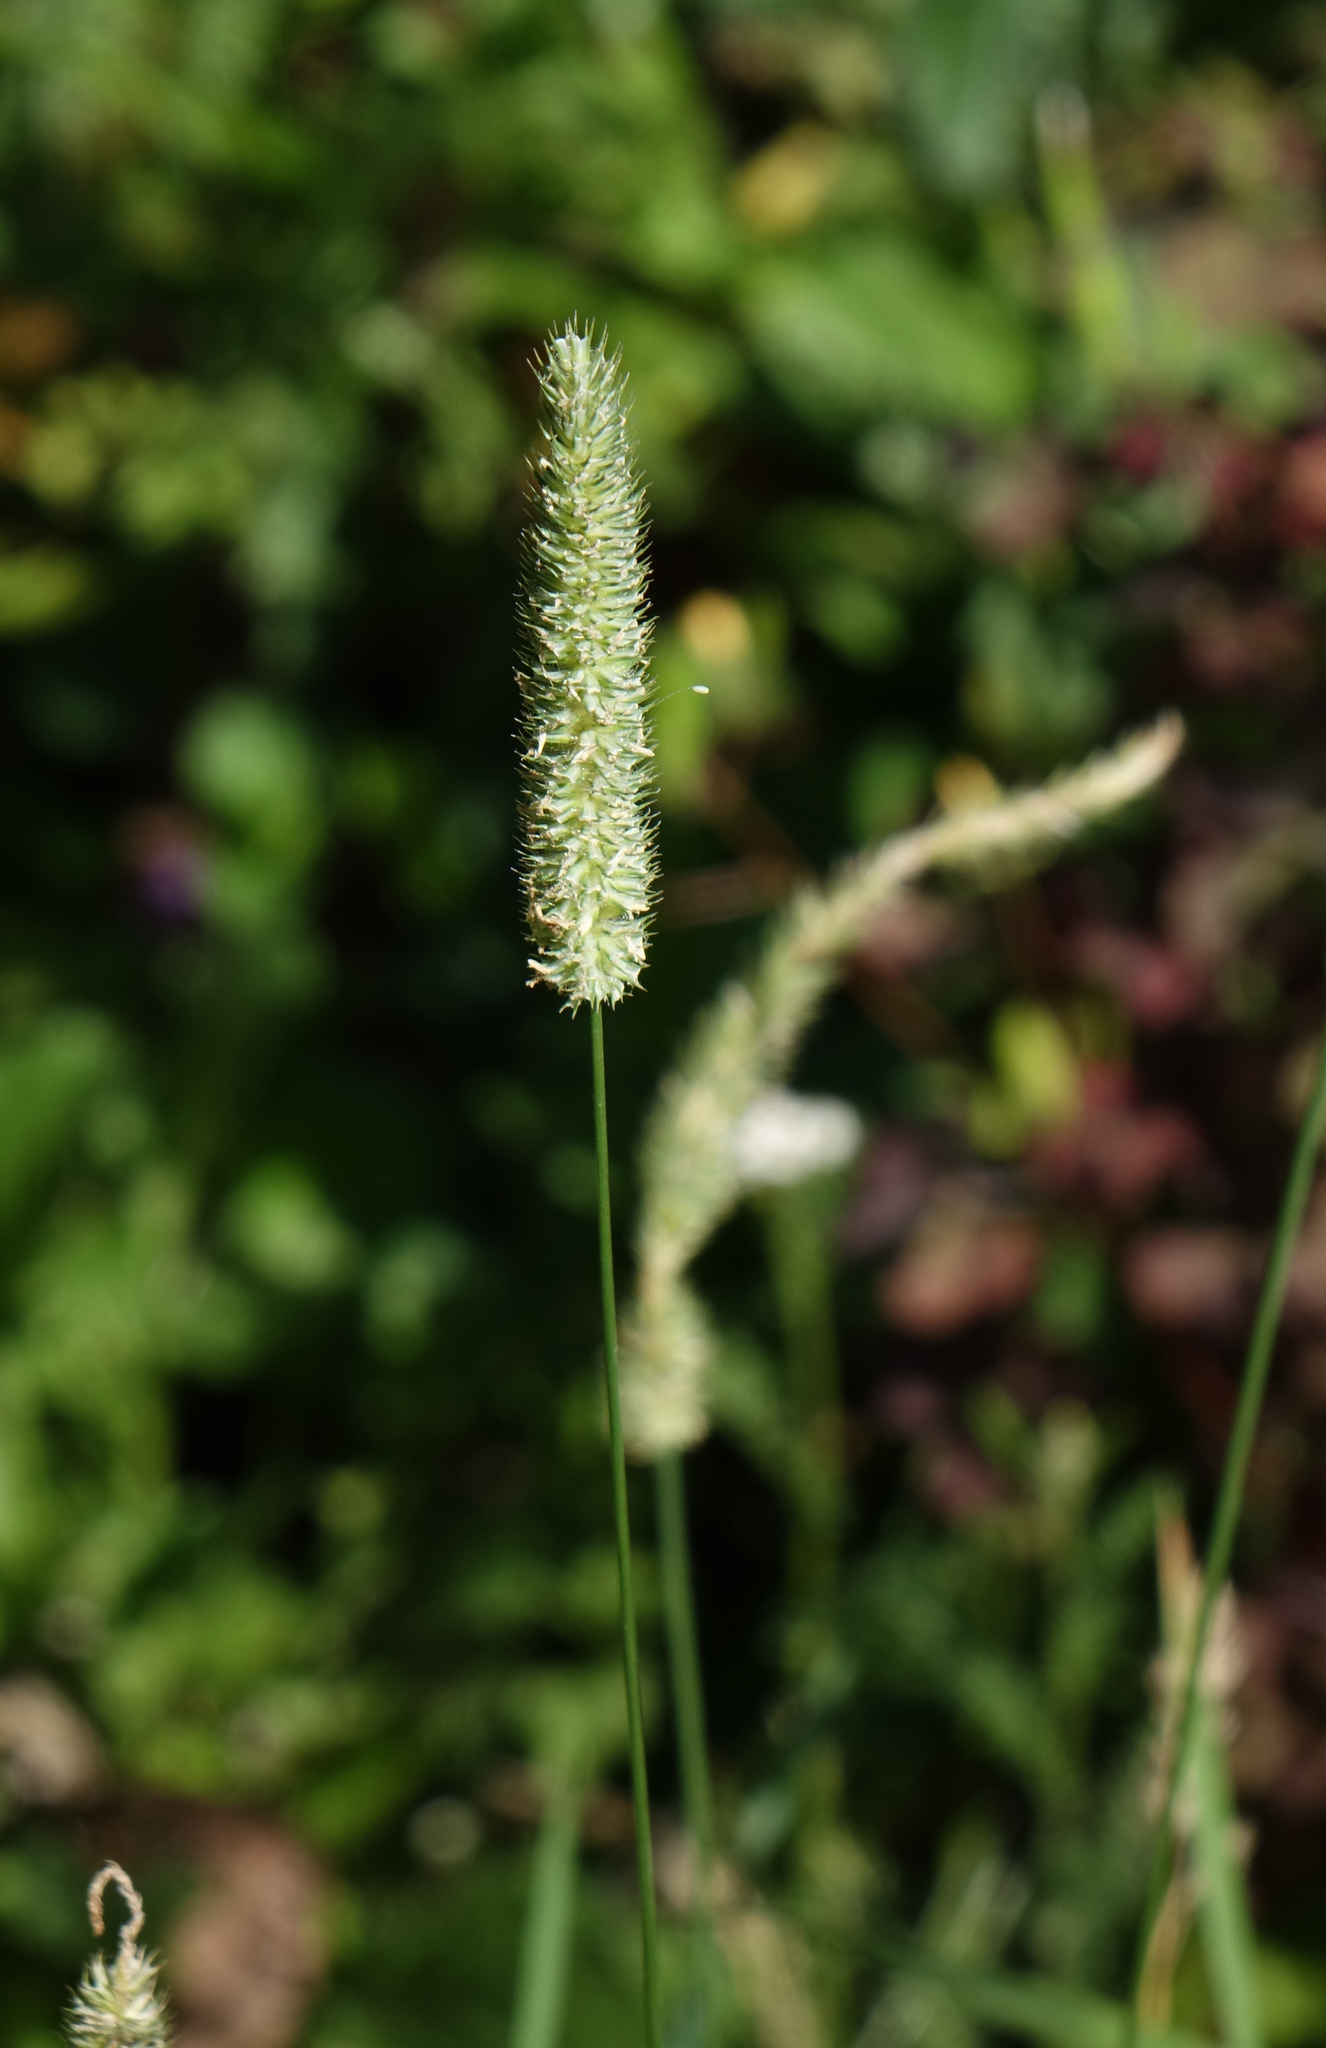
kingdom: Plantae
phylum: Tracheophyta
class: Liliopsida
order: Poales
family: Poaceae
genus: Phleum
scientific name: Phleum pratense
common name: Timothy grass
